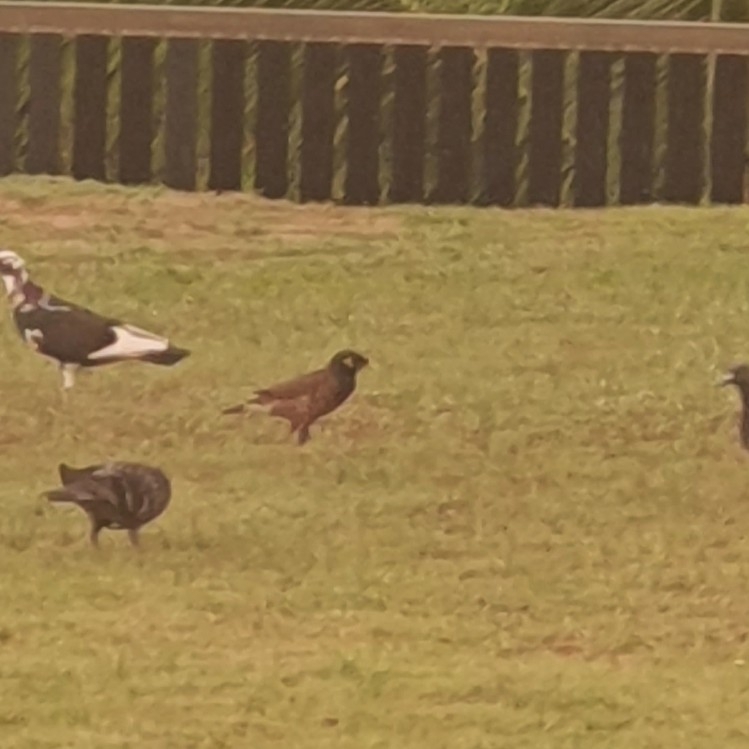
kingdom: Animalia
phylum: Chordata
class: Aves
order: Passeriformes
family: Sturnidae
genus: Acridotheres
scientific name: Acridotheres tristis
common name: Common myna
